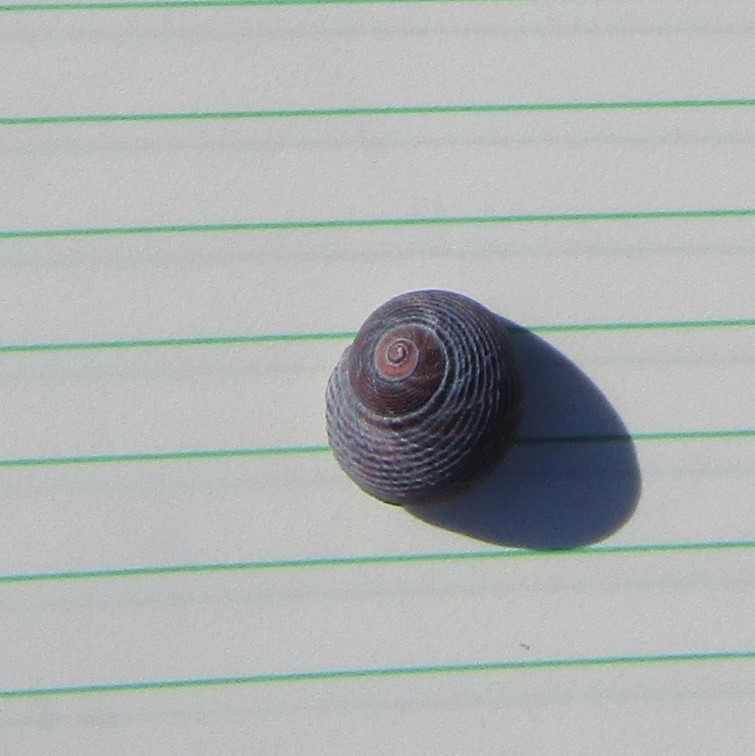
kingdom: Animalia
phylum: Mollusca
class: Gastropoda
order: Trochida
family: Trochidae
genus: Diloma
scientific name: Diloma nigerrimum
